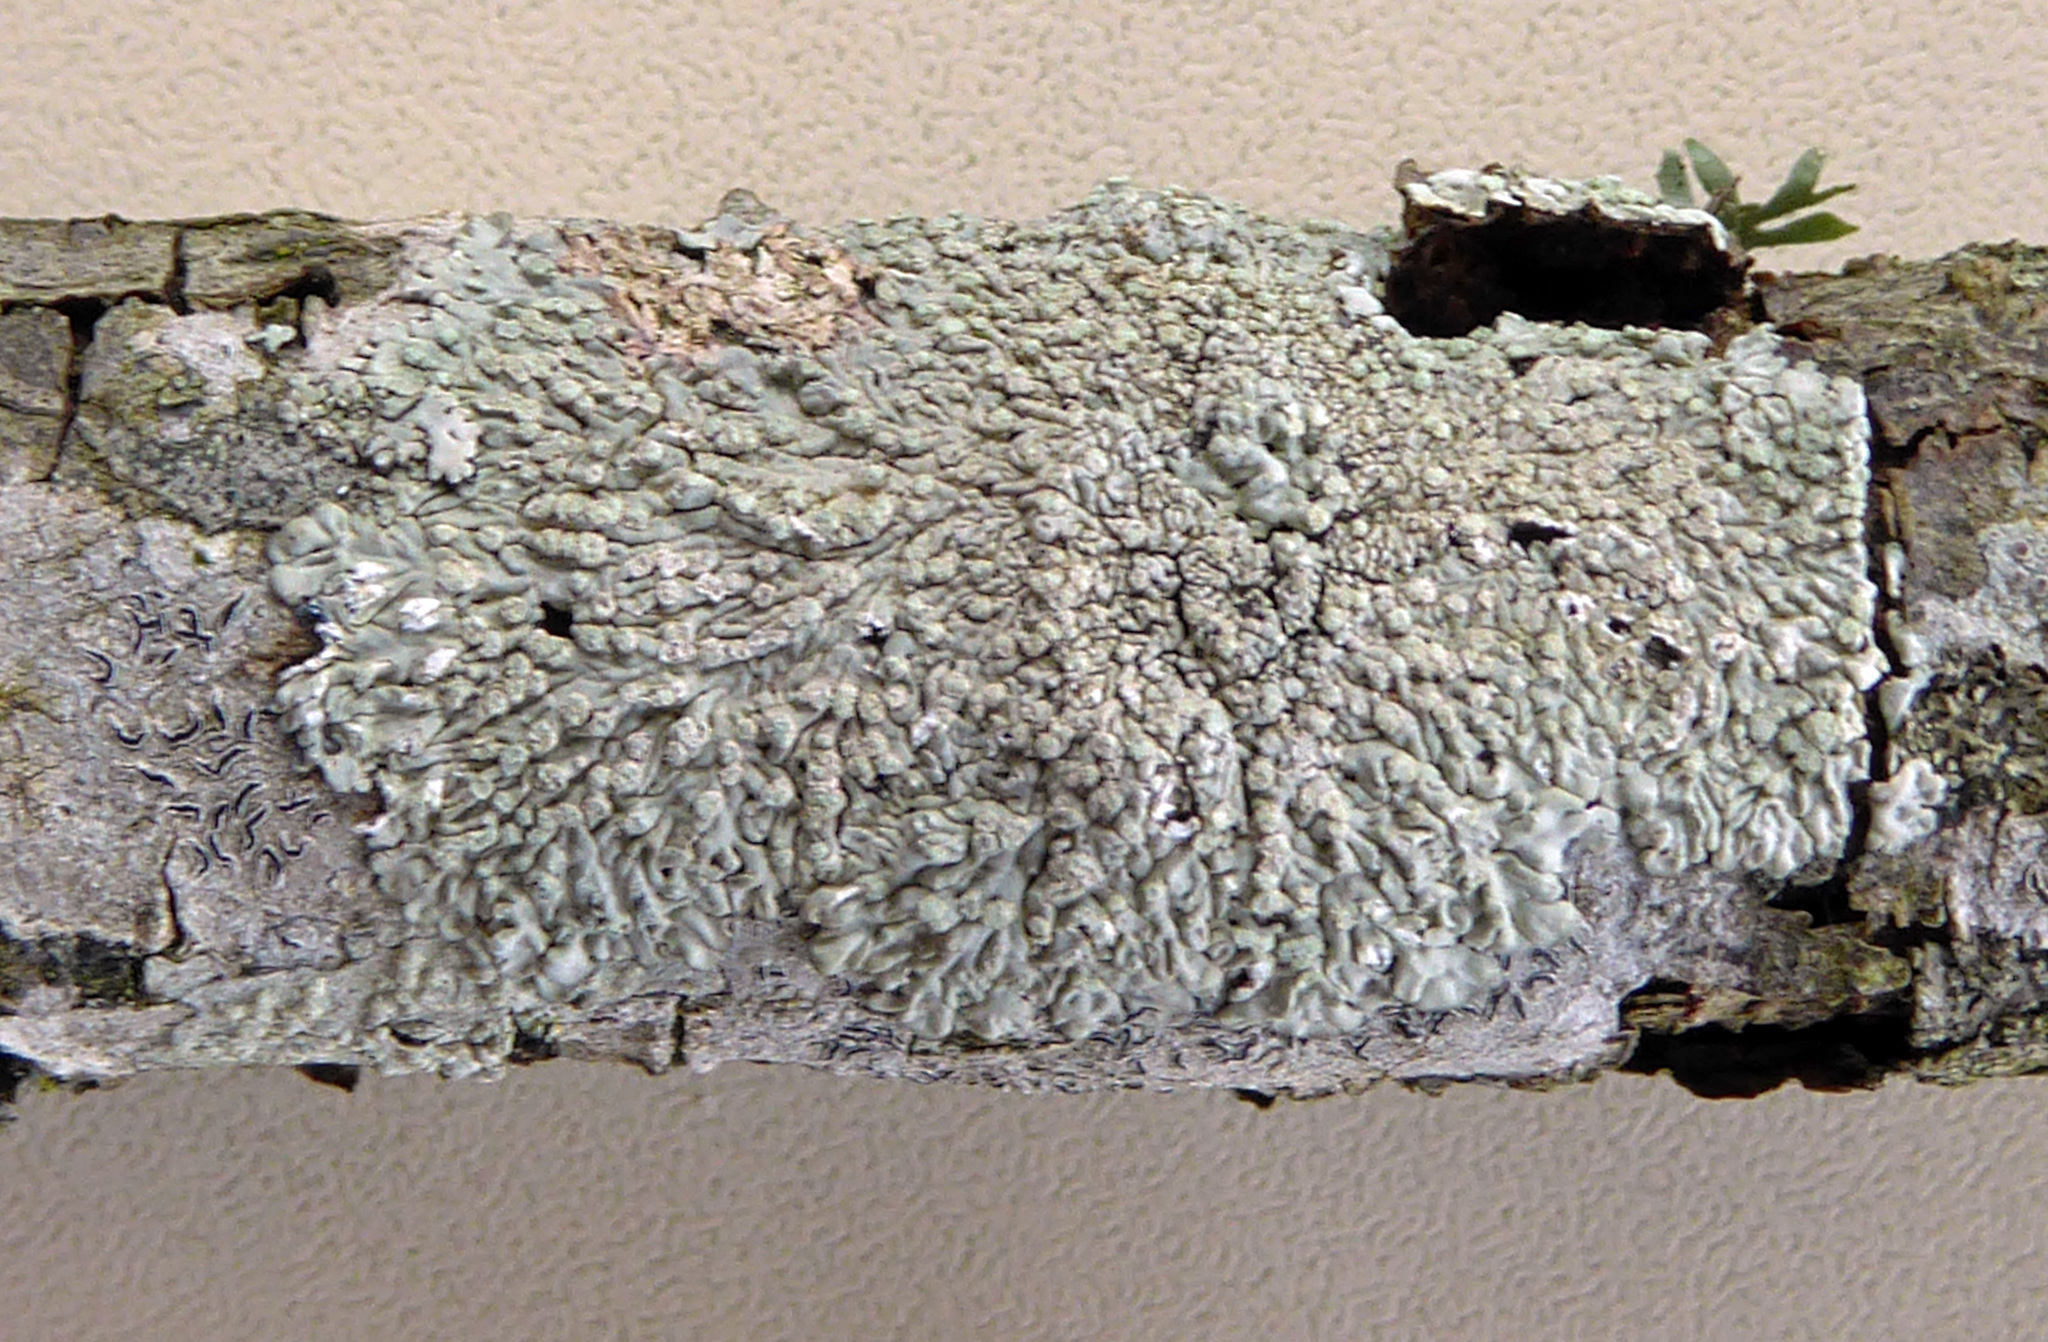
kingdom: Fungi
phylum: Ascomycota
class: Lecanoromycetes
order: Caliciales
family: Caliciaceae
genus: Dirinaria
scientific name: Dirinaria applanata
